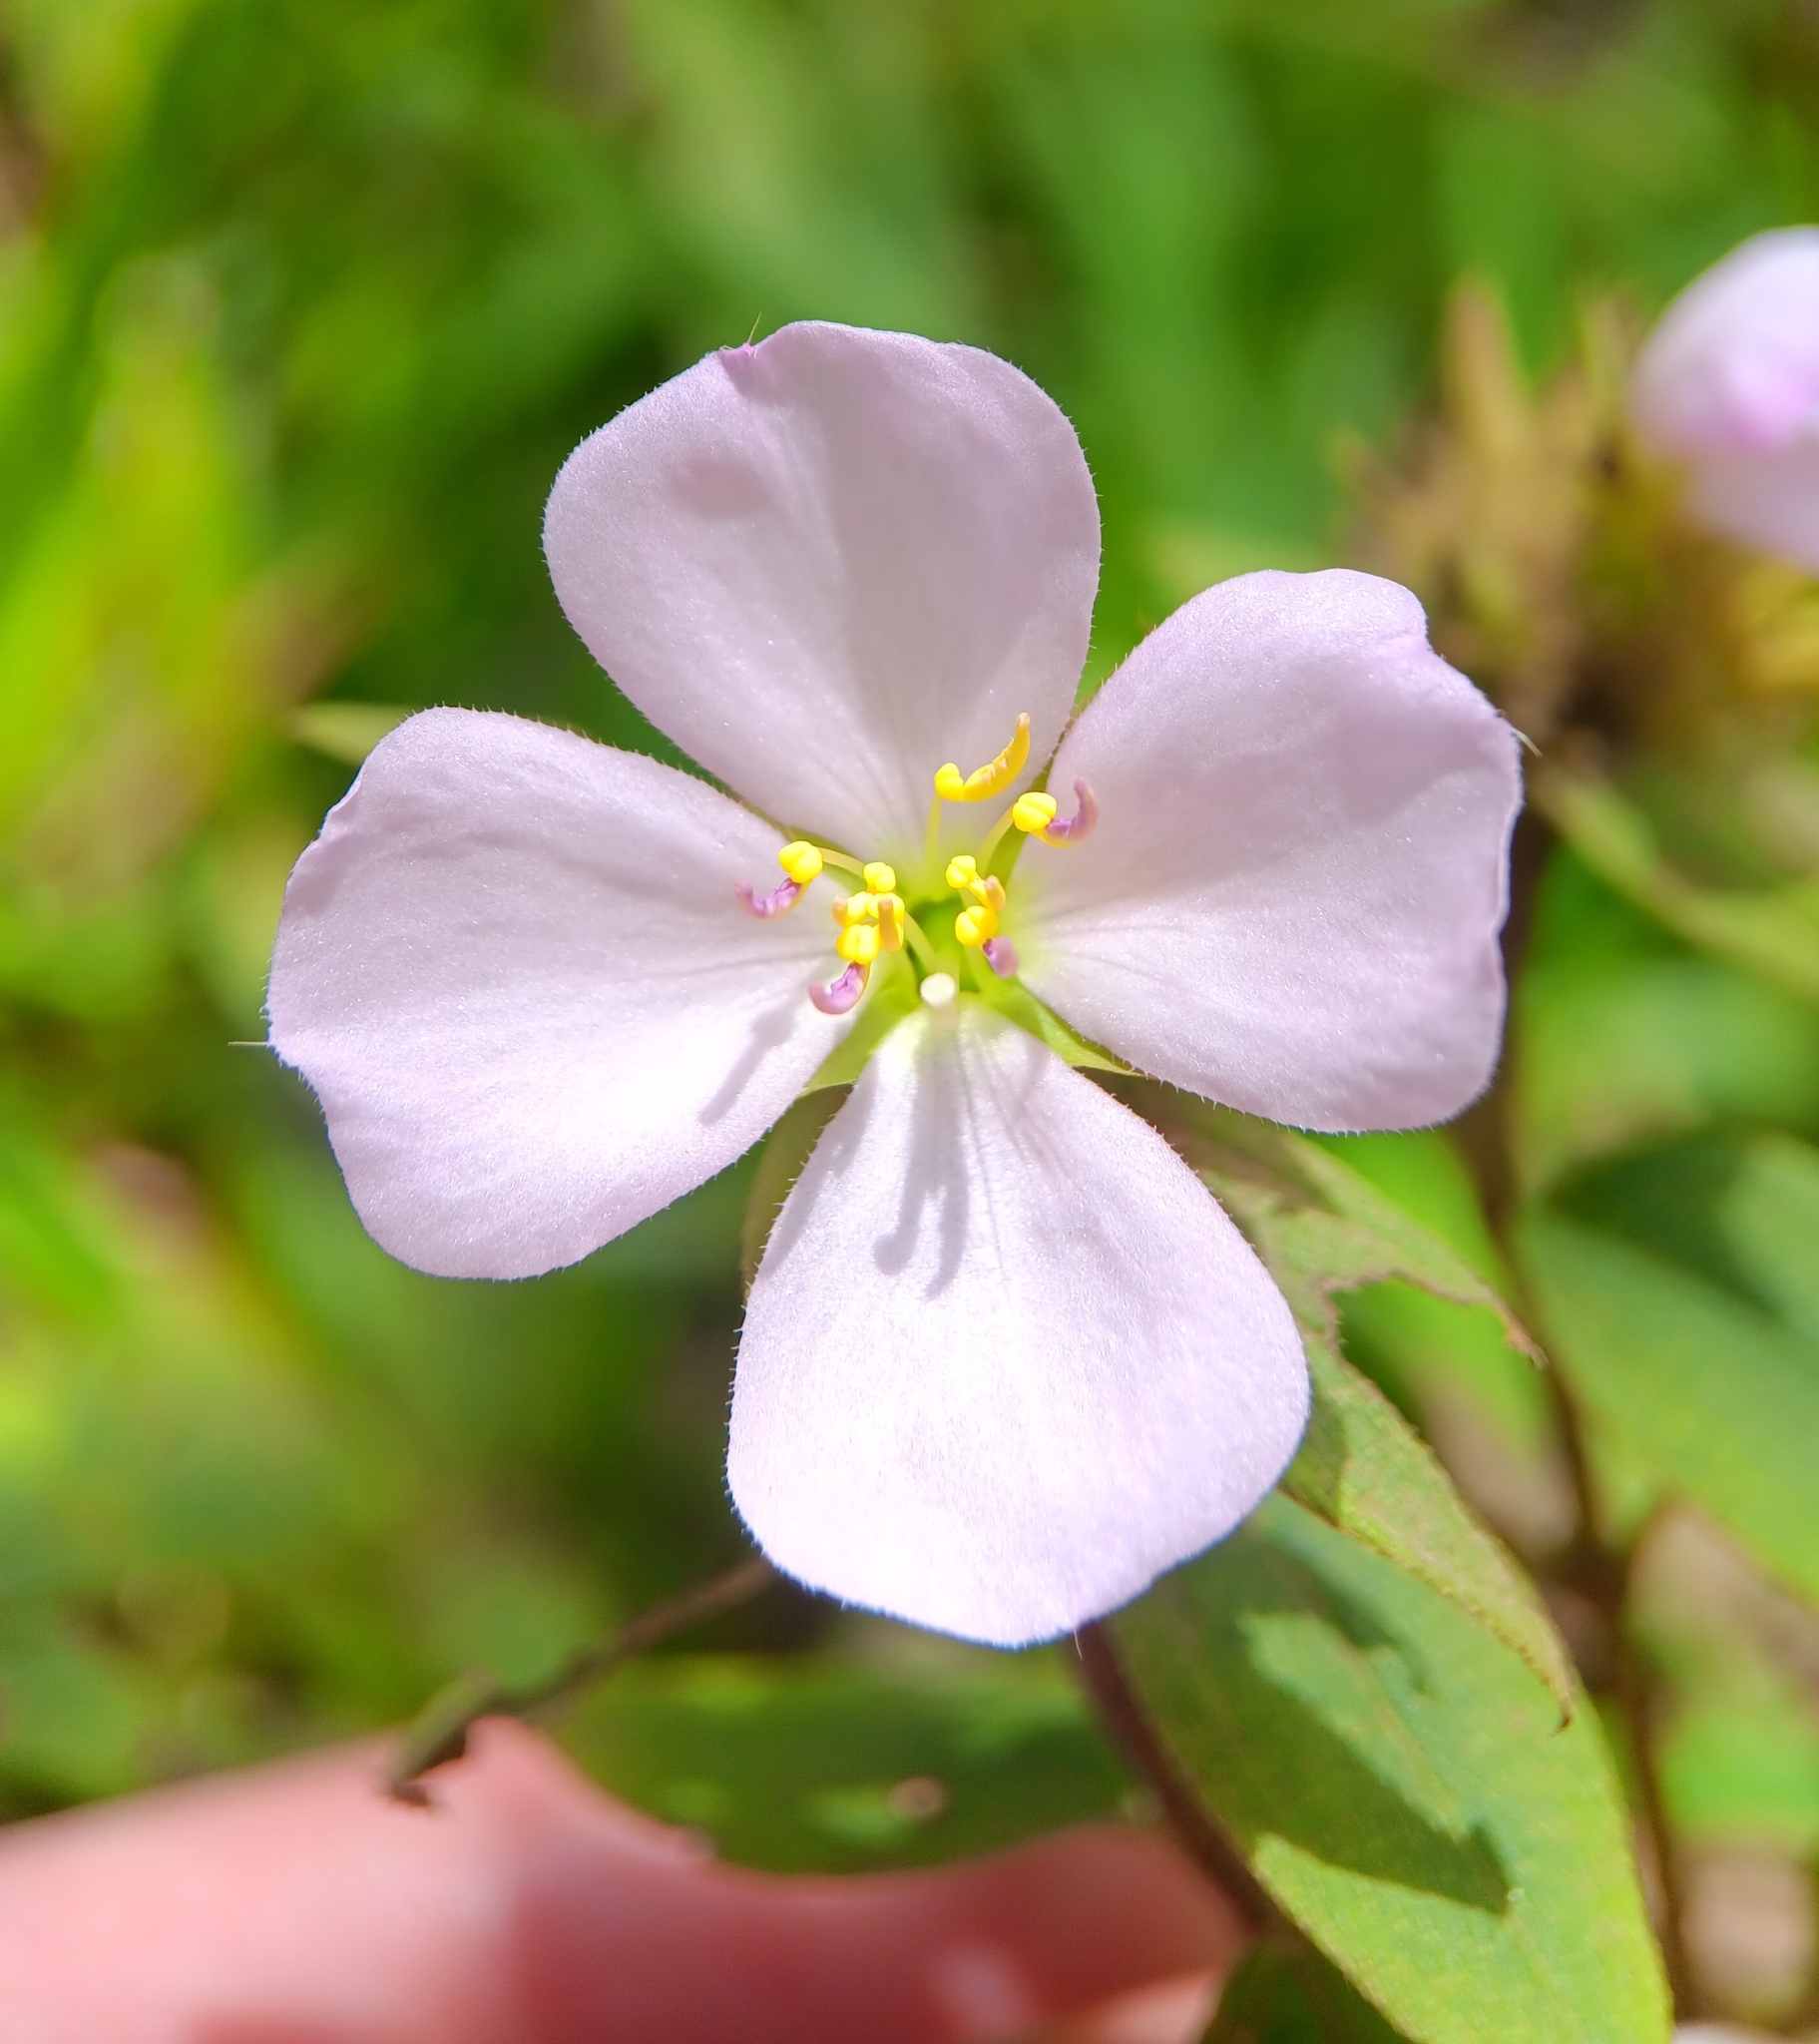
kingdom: Plantae
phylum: Tracheophyta
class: Magnoliopsida
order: Myrtales
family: Melastomataceae
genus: Pterolepis
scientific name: Pterolepis glomerata
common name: False meadowbeauty
